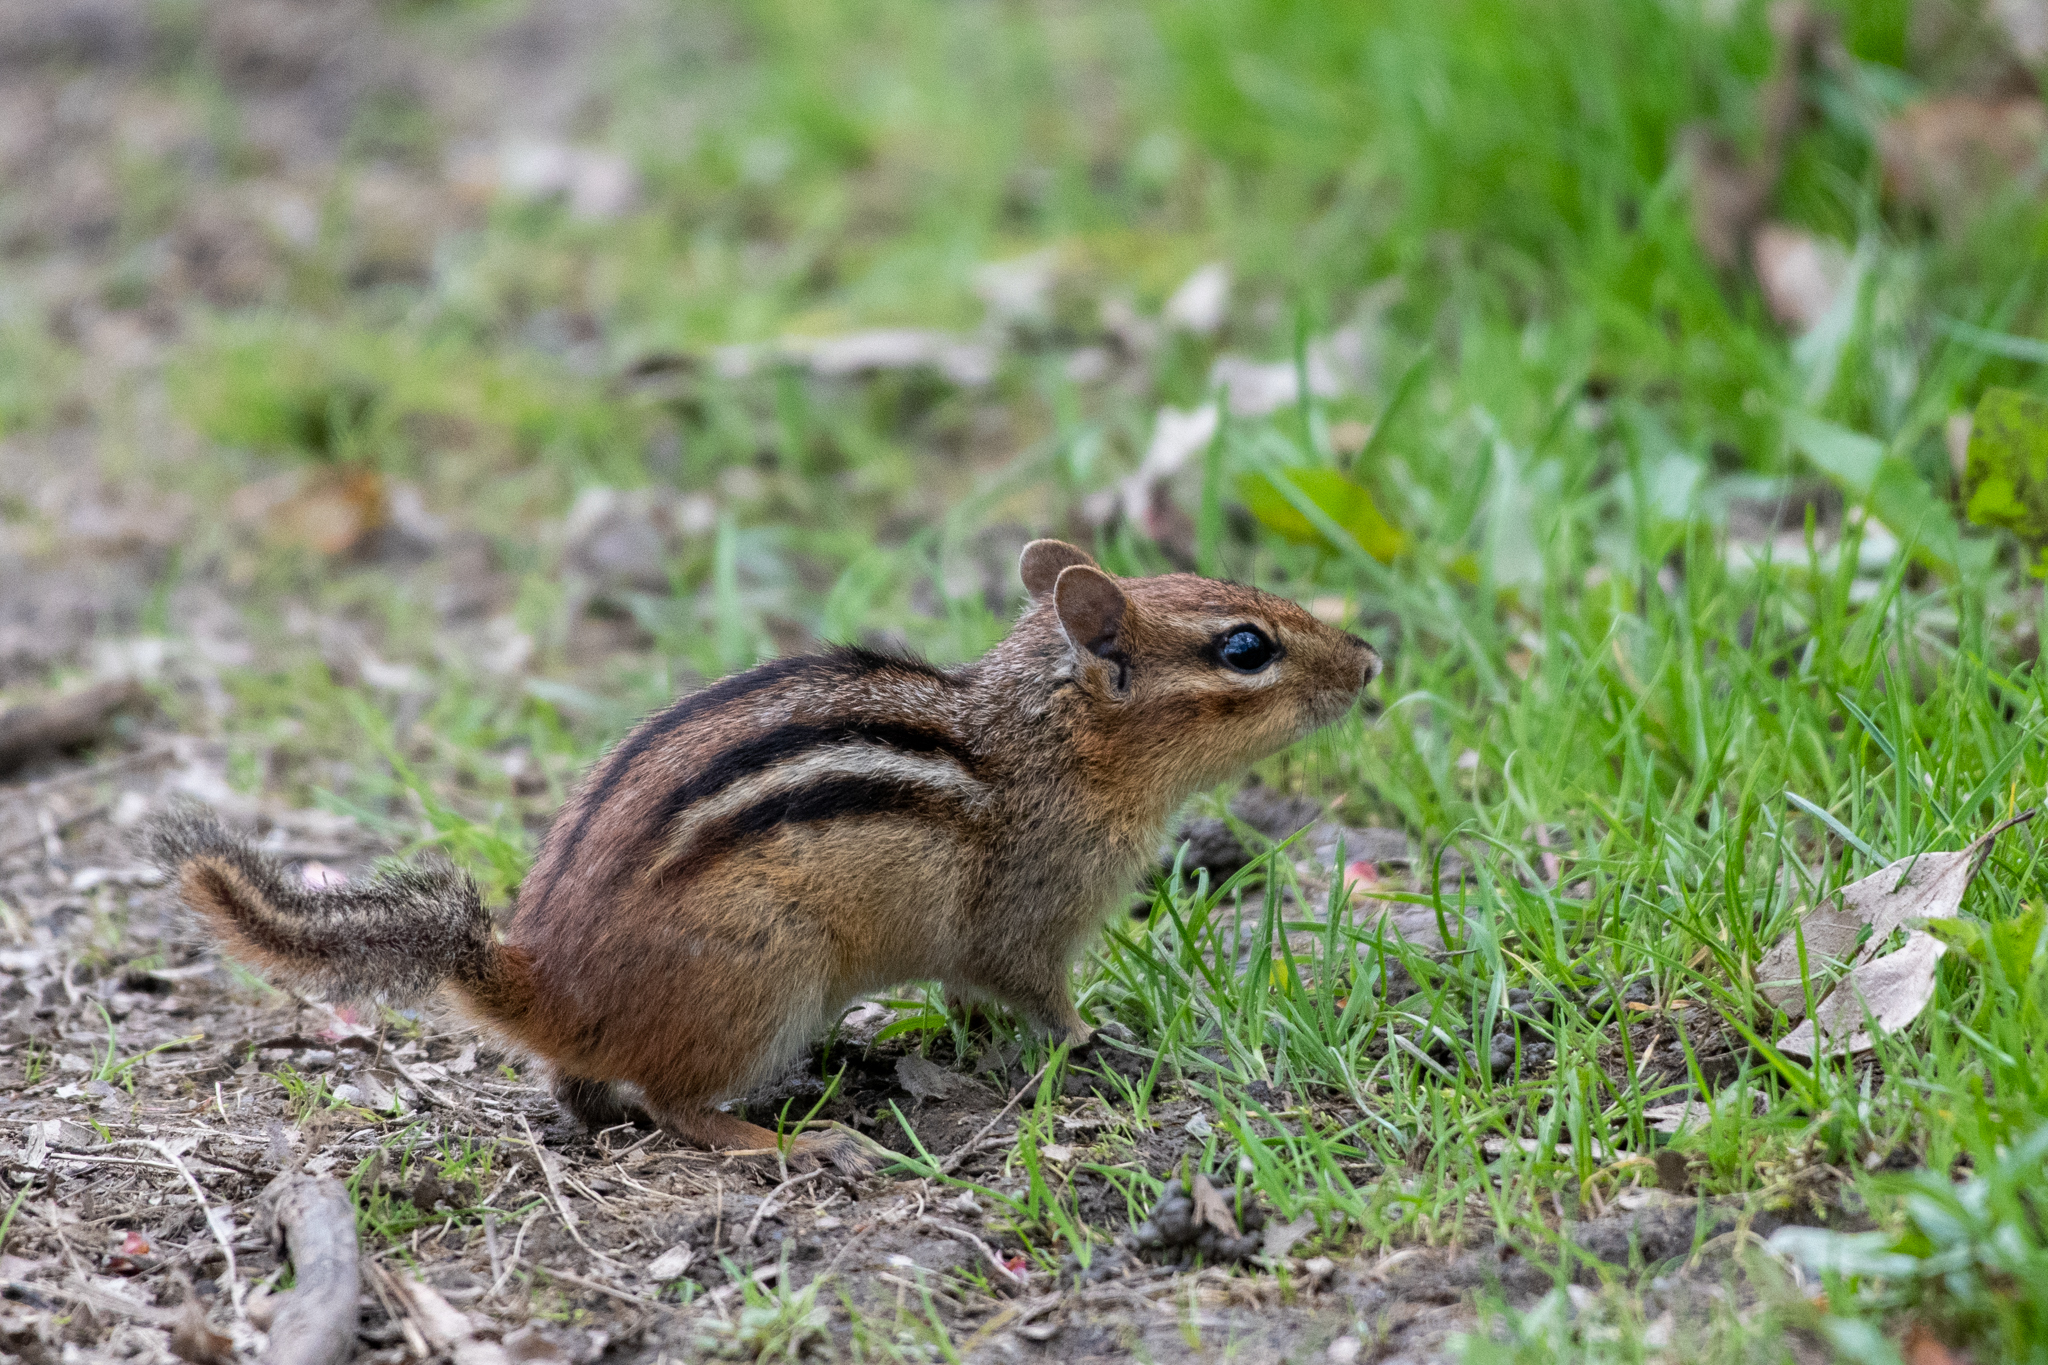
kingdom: Animalia
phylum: Chordata
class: Mammalia
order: Rodentia
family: Sciuridae
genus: Tamias
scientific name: Tamias striatus
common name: Eastern chipmunk
